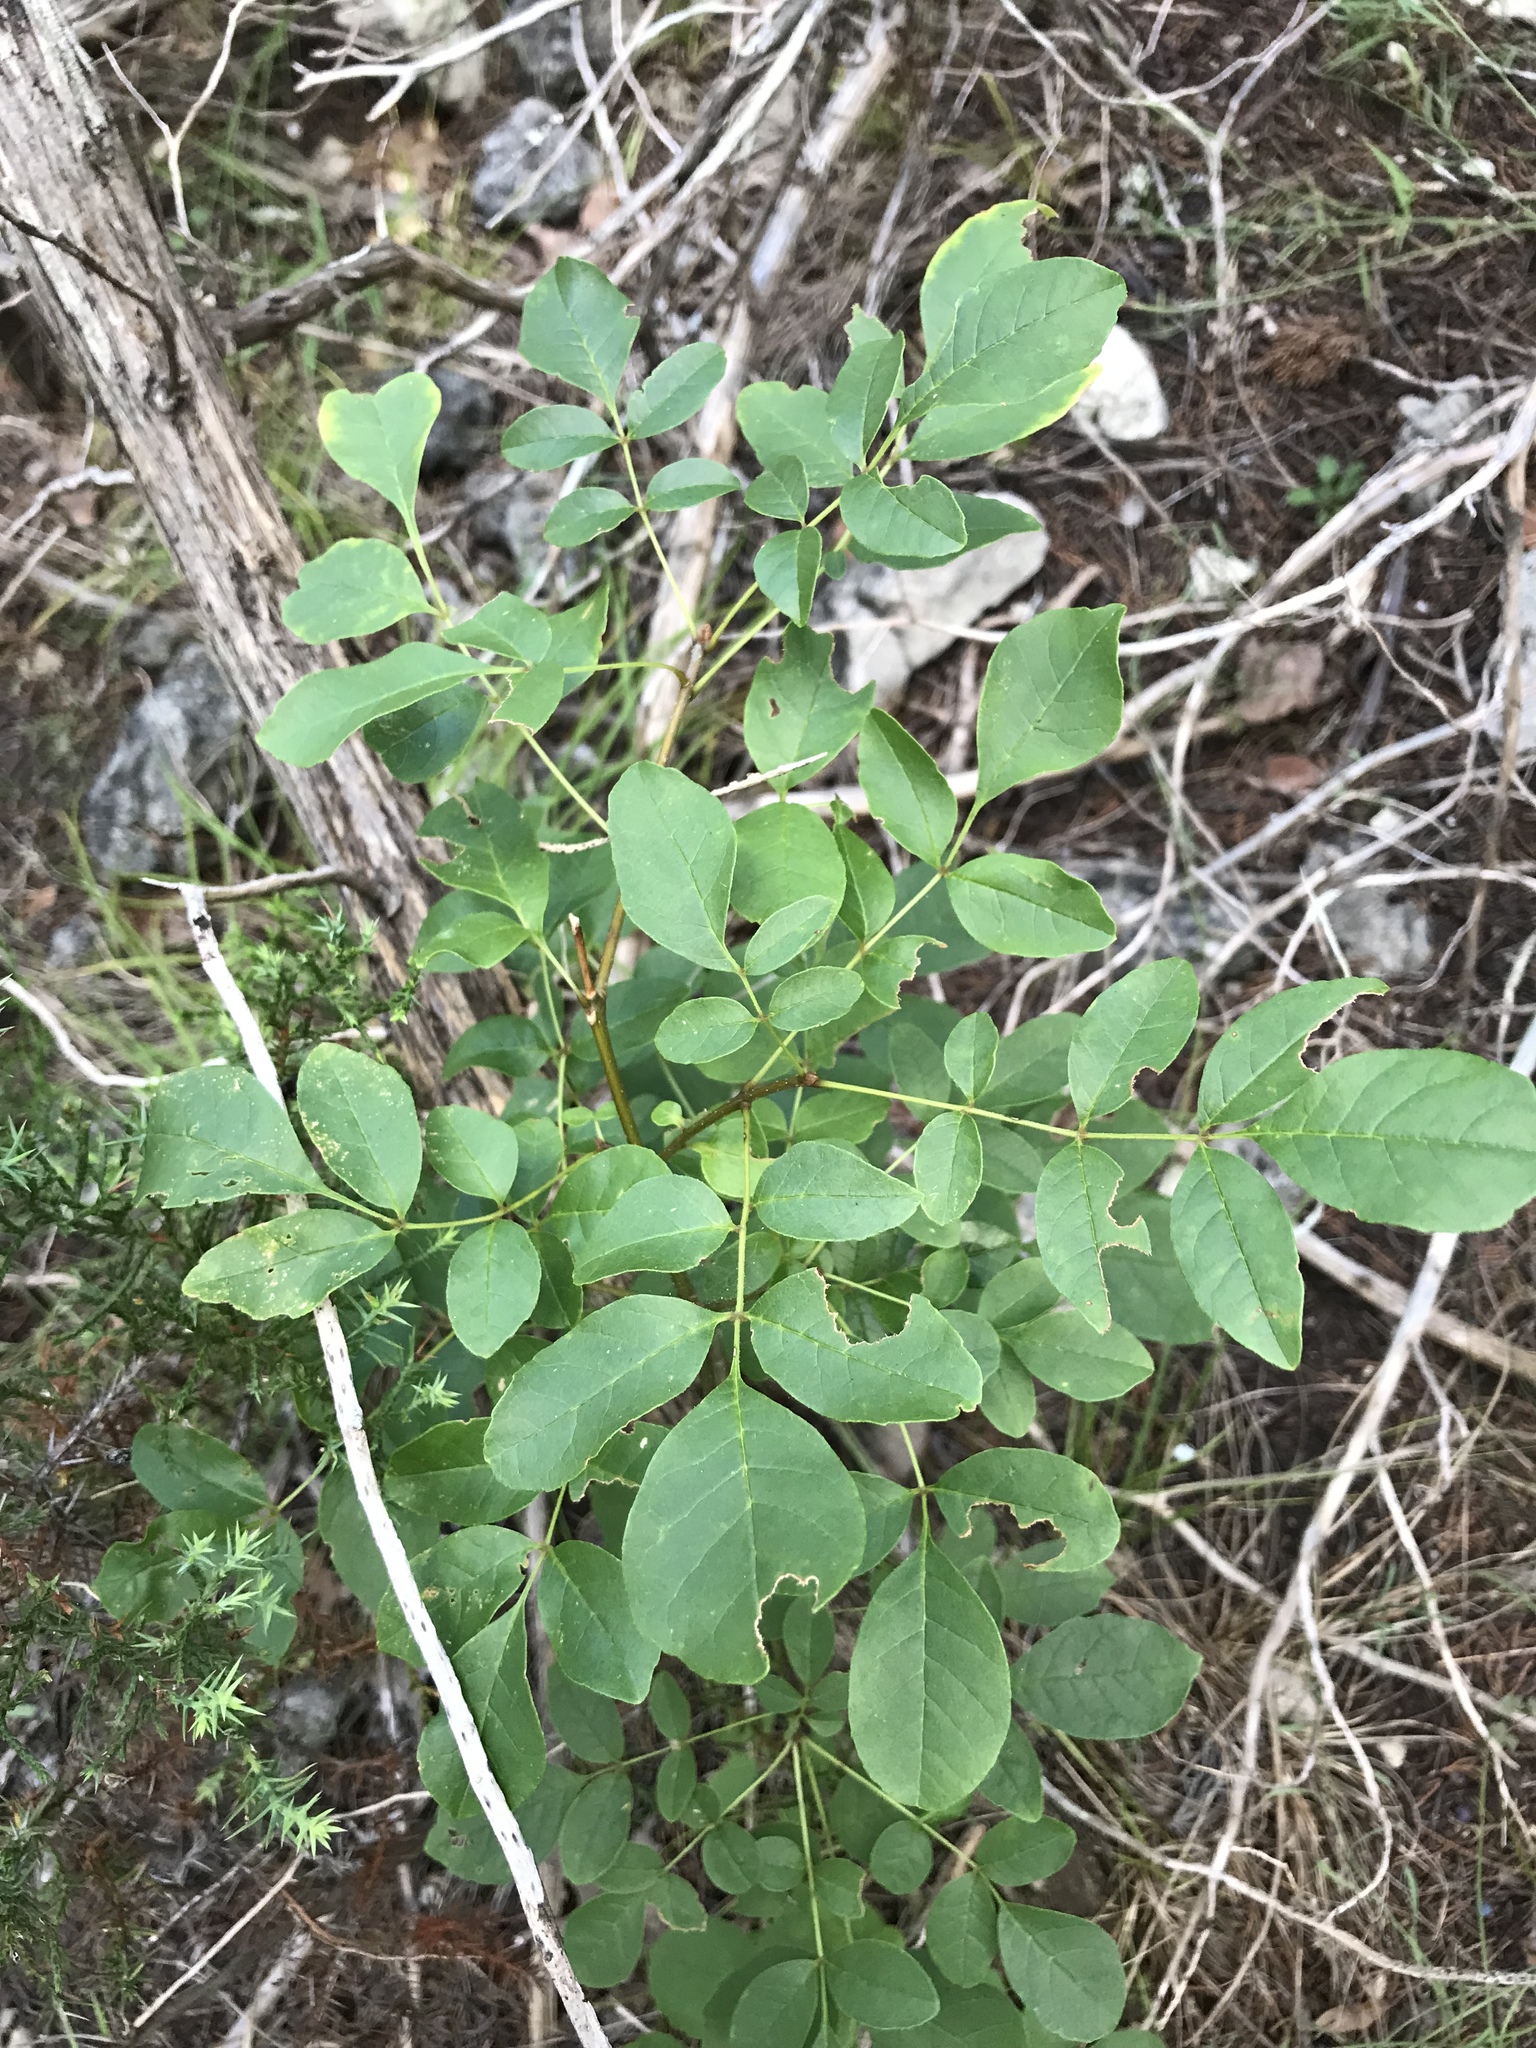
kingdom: Plantae
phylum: Tracheophyta
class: Magnoliopsida
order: Lamiales
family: Oleaceae
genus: Fraxinus
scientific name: Fraxinus albicans
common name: Texas ash
